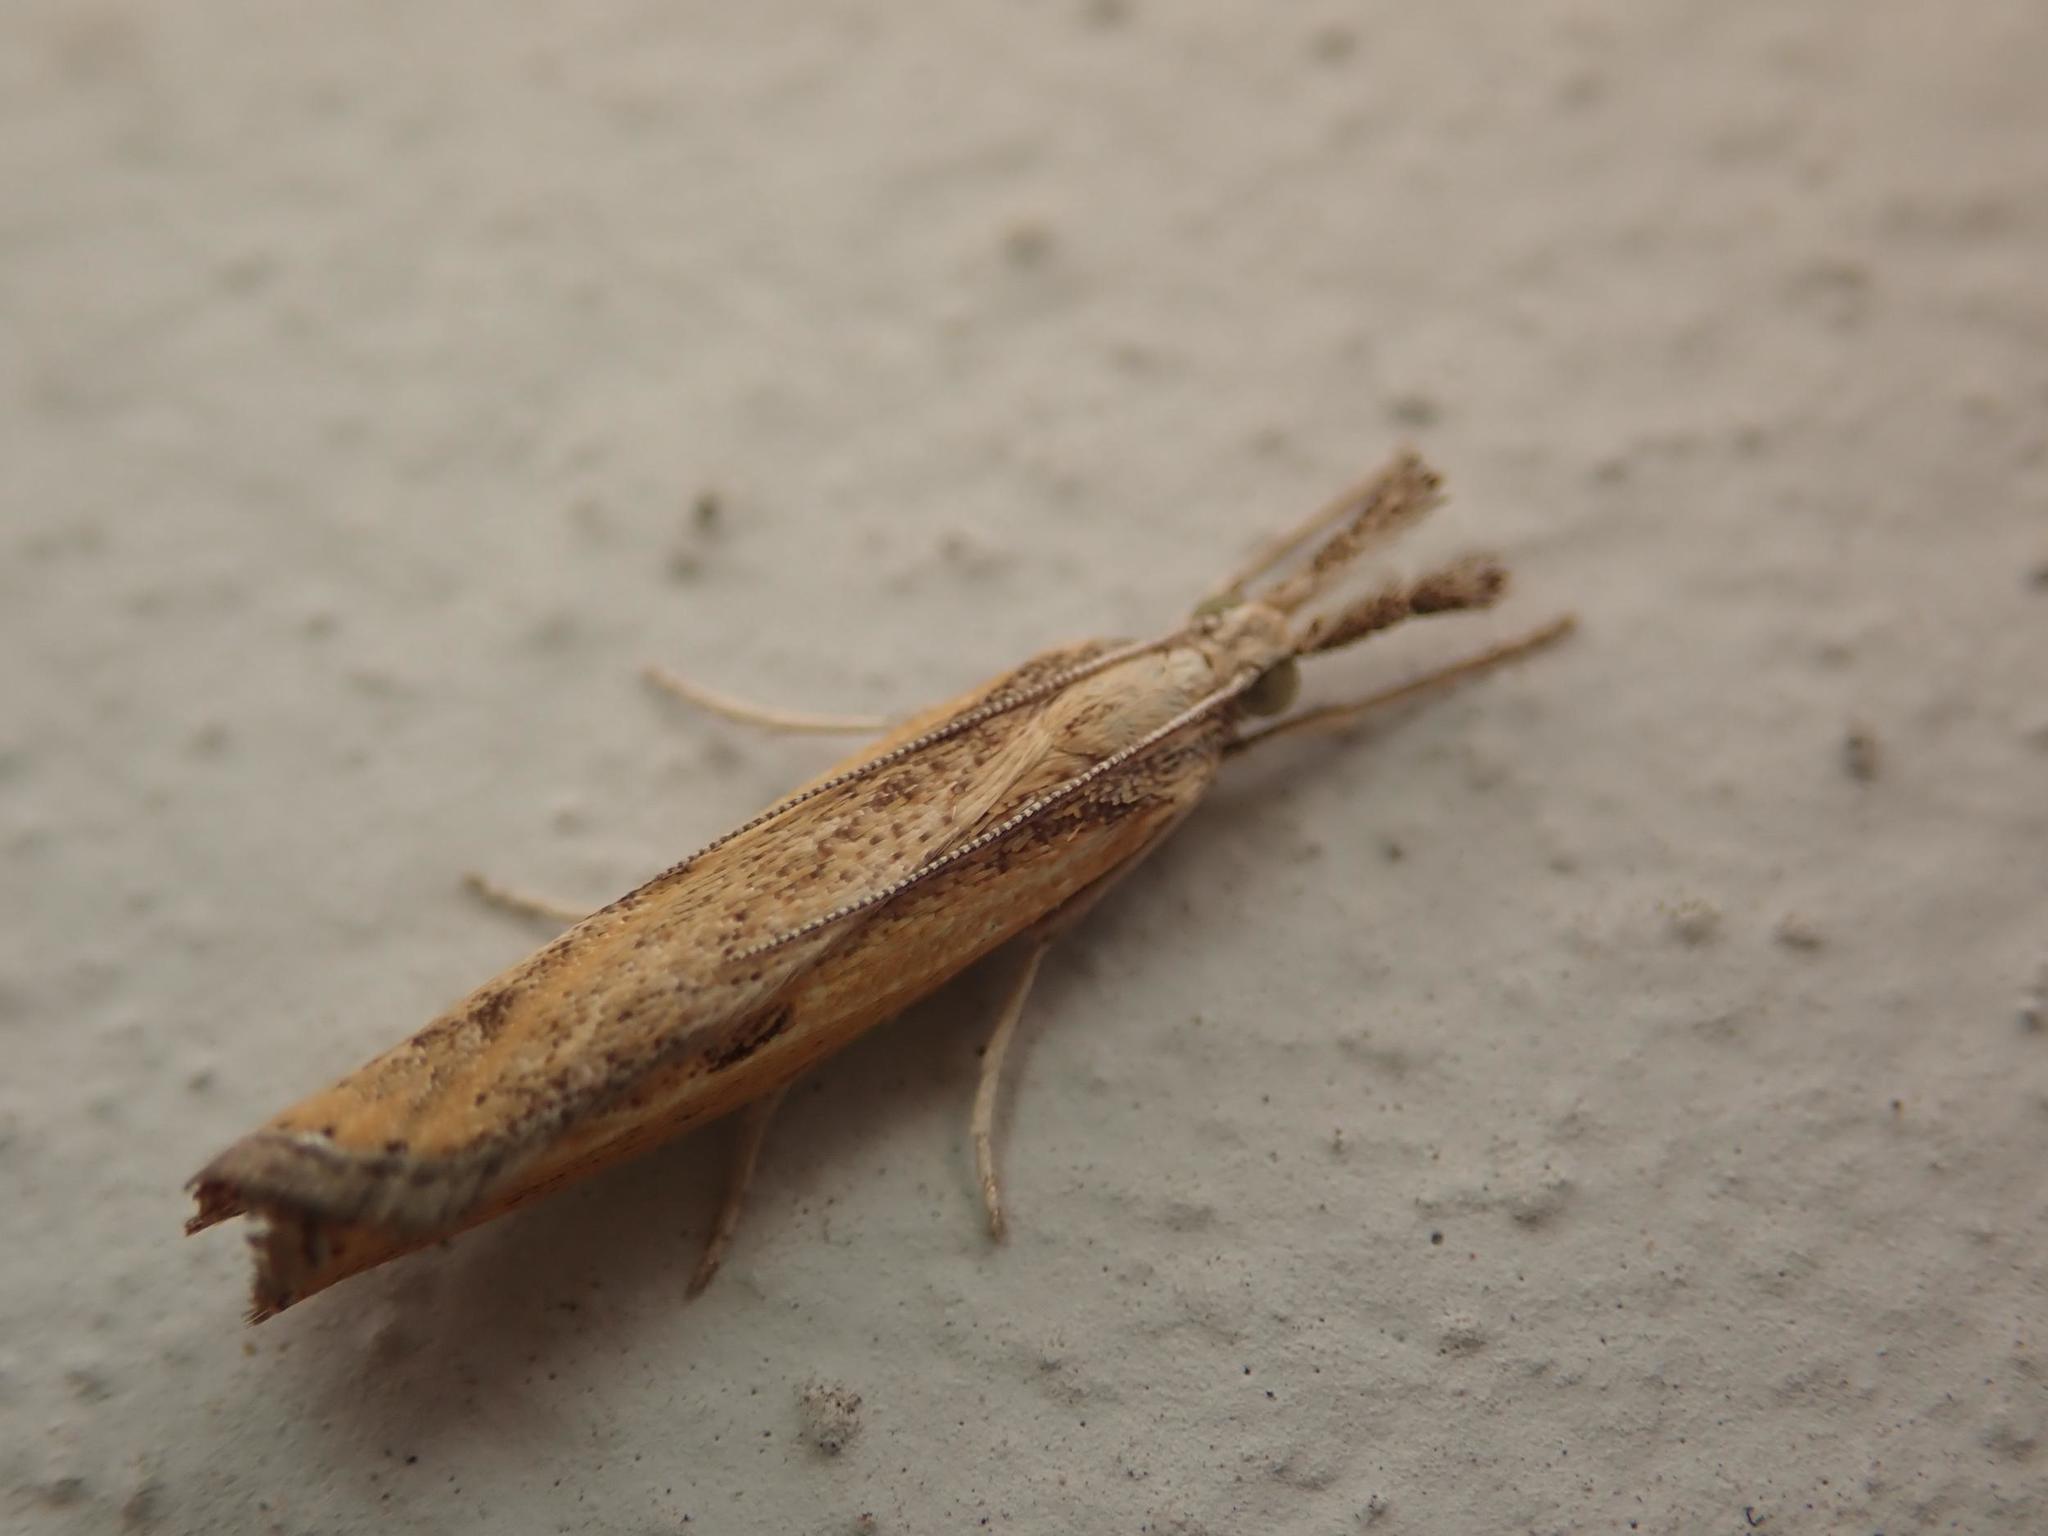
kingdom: Animalia
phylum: Arthropoda
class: Insecta
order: Lepidoptera
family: Crambidae
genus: Agriphila
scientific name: Agriphila inquinatella
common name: Barred grass-veneer
